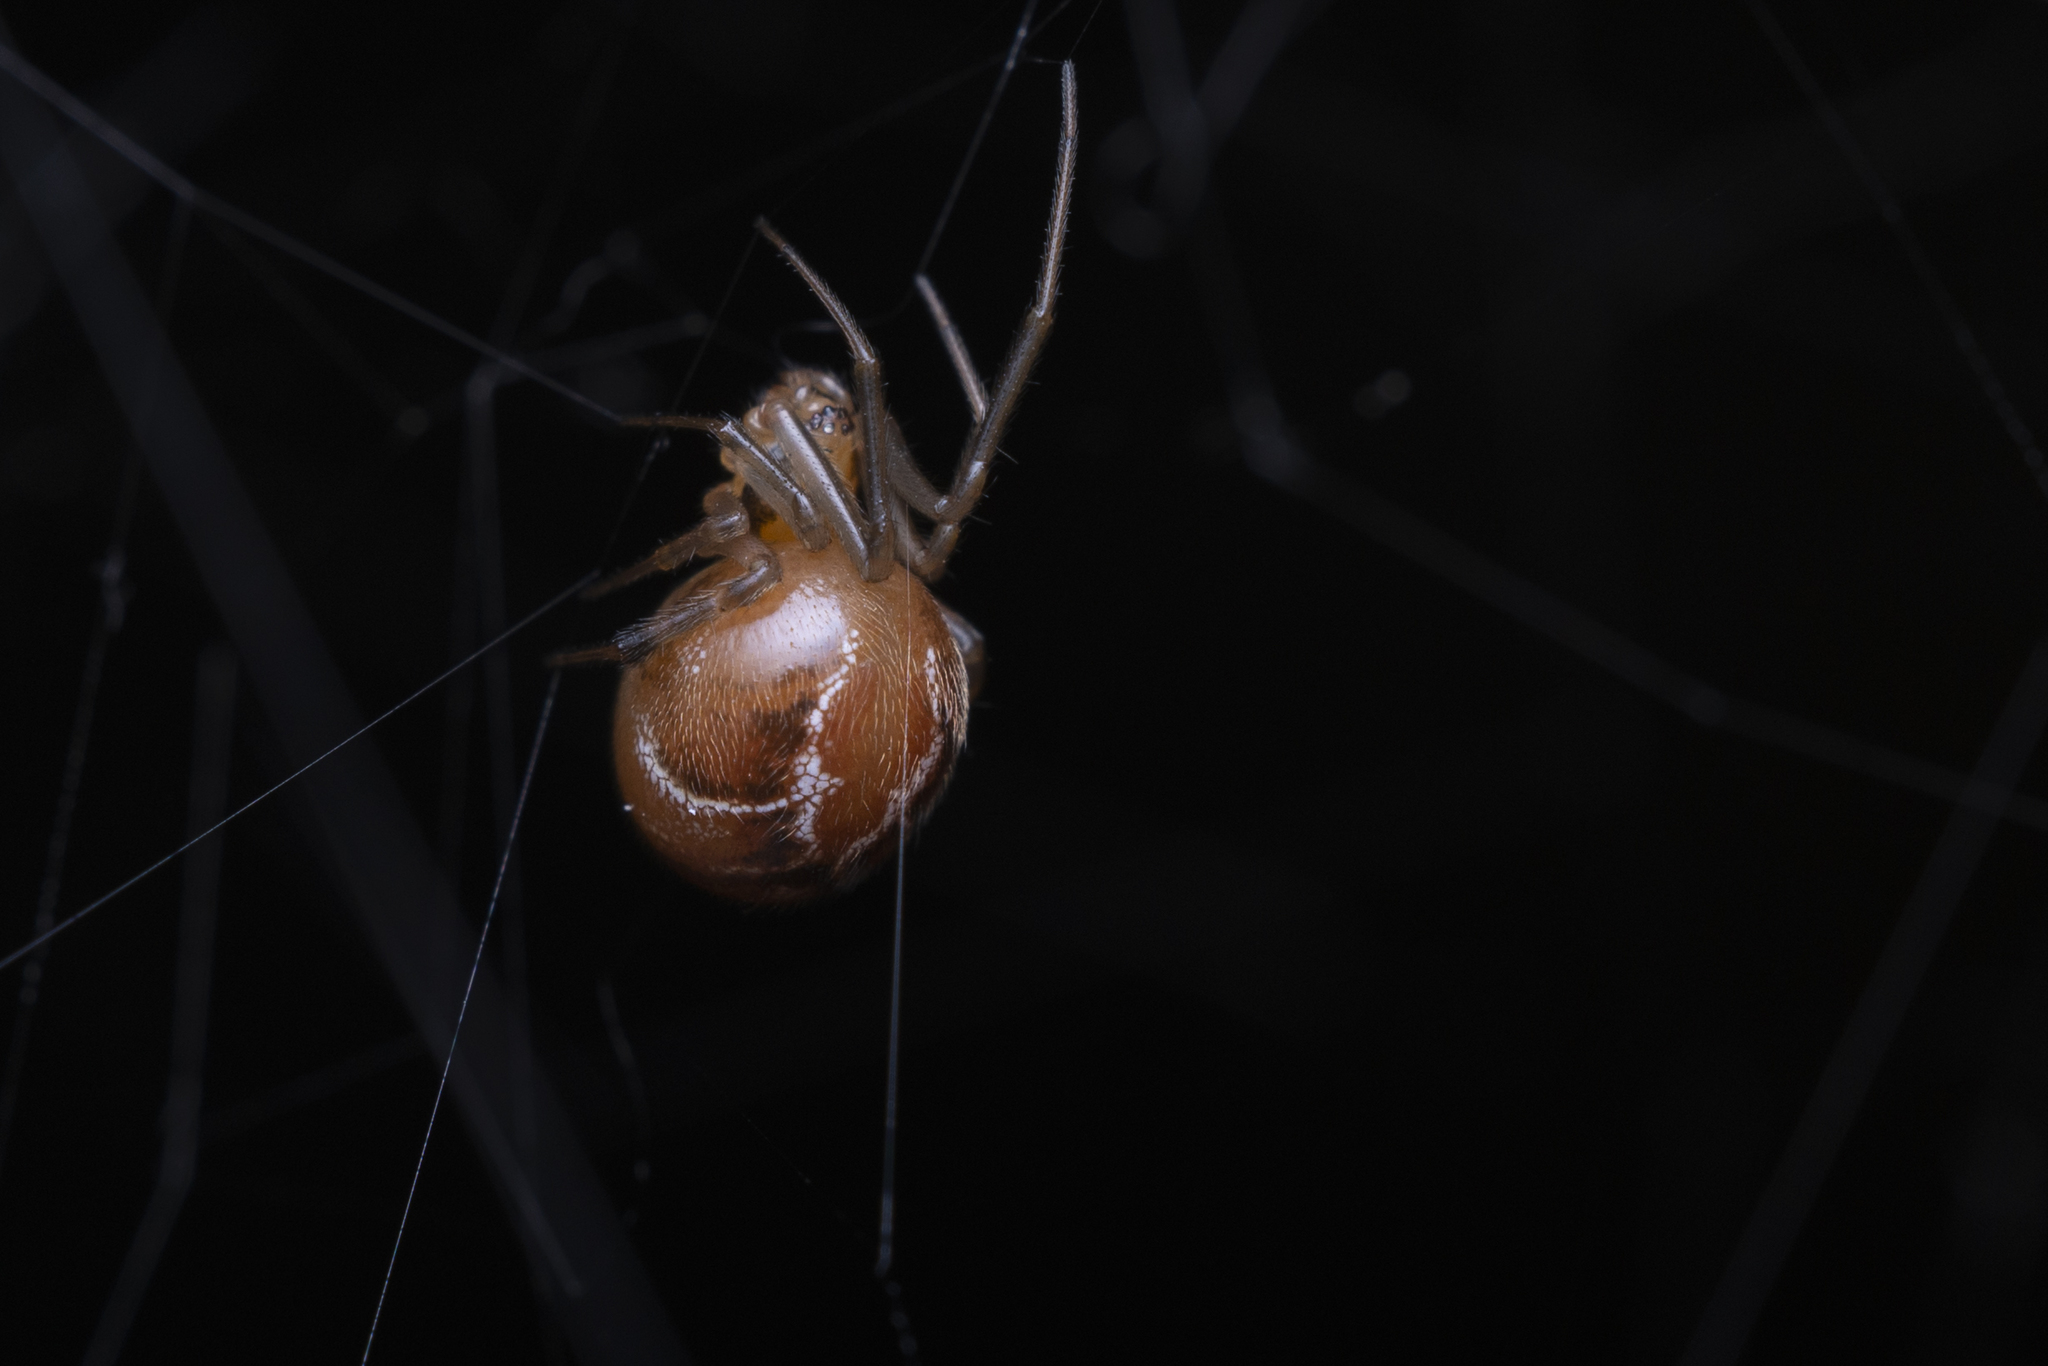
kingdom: Animalia
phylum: Arthropoda
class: Arachnida
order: Araneae
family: Theridiidae
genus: Nihonhimea
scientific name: Nihonhimea japonica
